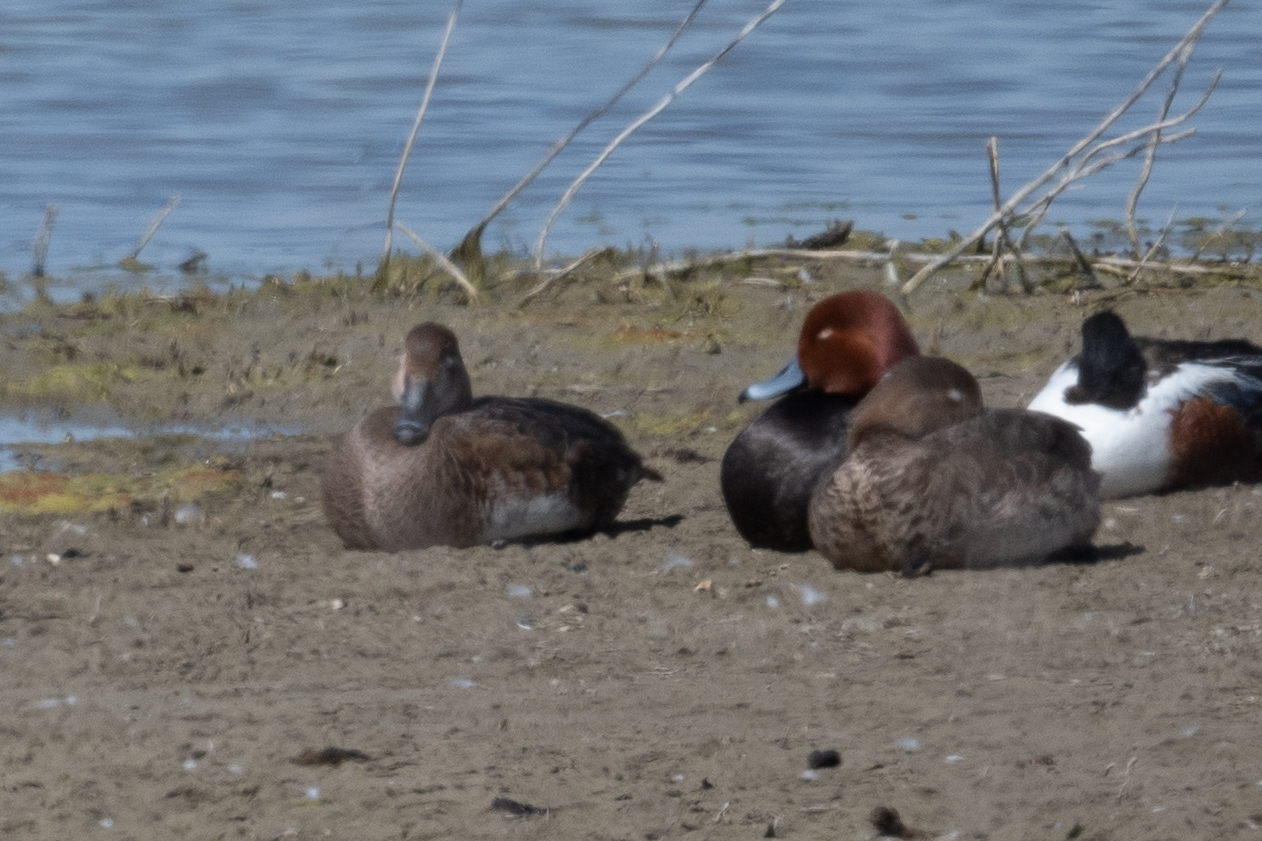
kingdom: Animalia
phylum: Chordata
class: Aves
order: Anseriformes
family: Anatidae
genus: Aythya
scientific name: Aythya americana
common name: Redhead
